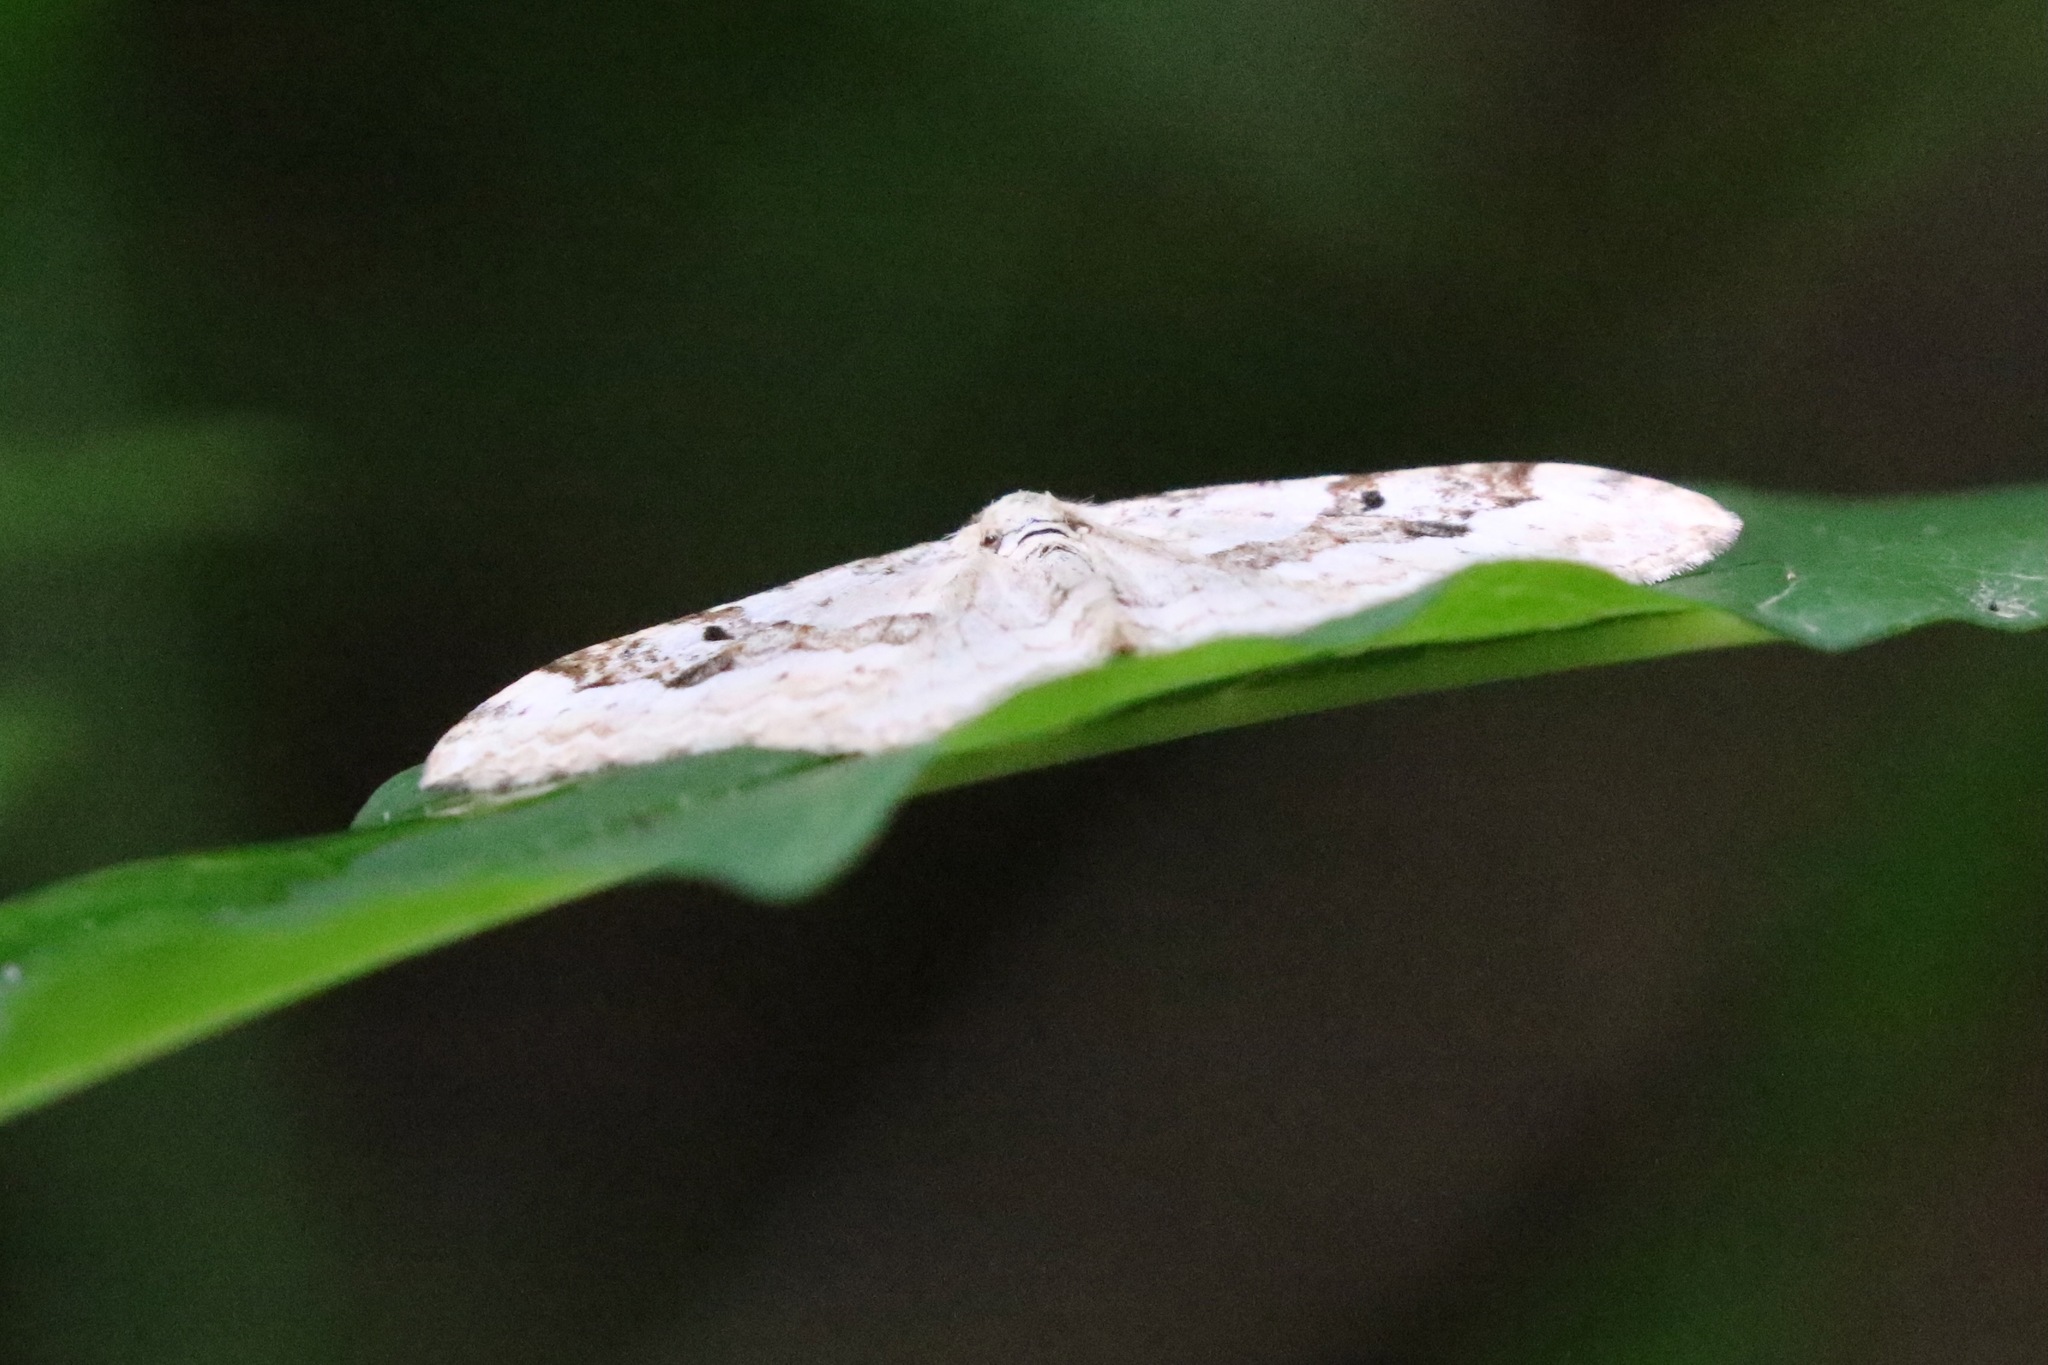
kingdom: Animalia
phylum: Arthropoda
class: Insecta
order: Lepidoptera
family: Geometridae
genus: Xanthorhoe
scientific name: Xanthorhoe montanata
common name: Silver-ground carpet
